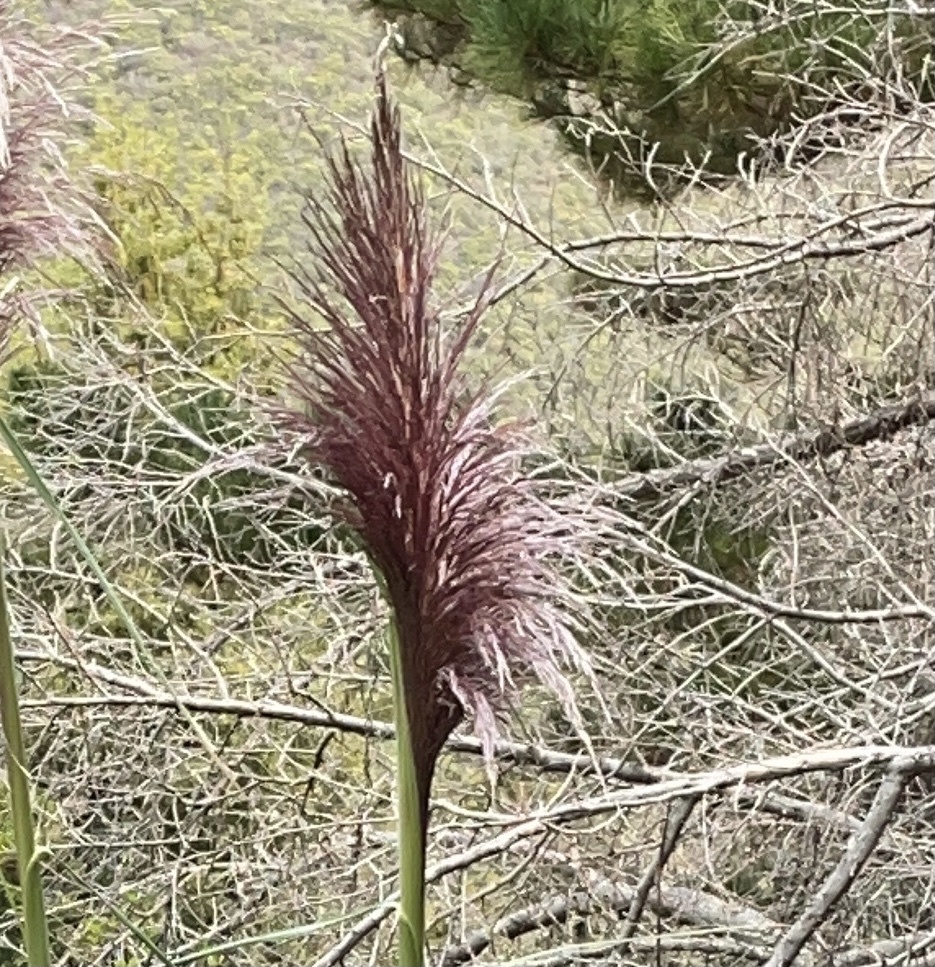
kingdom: Plantae
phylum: Tracheophyta
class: Liliopsida
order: Poales
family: Poaceae
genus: Cortaderia
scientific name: Cortaderia jubata
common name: Purple pampas grass
